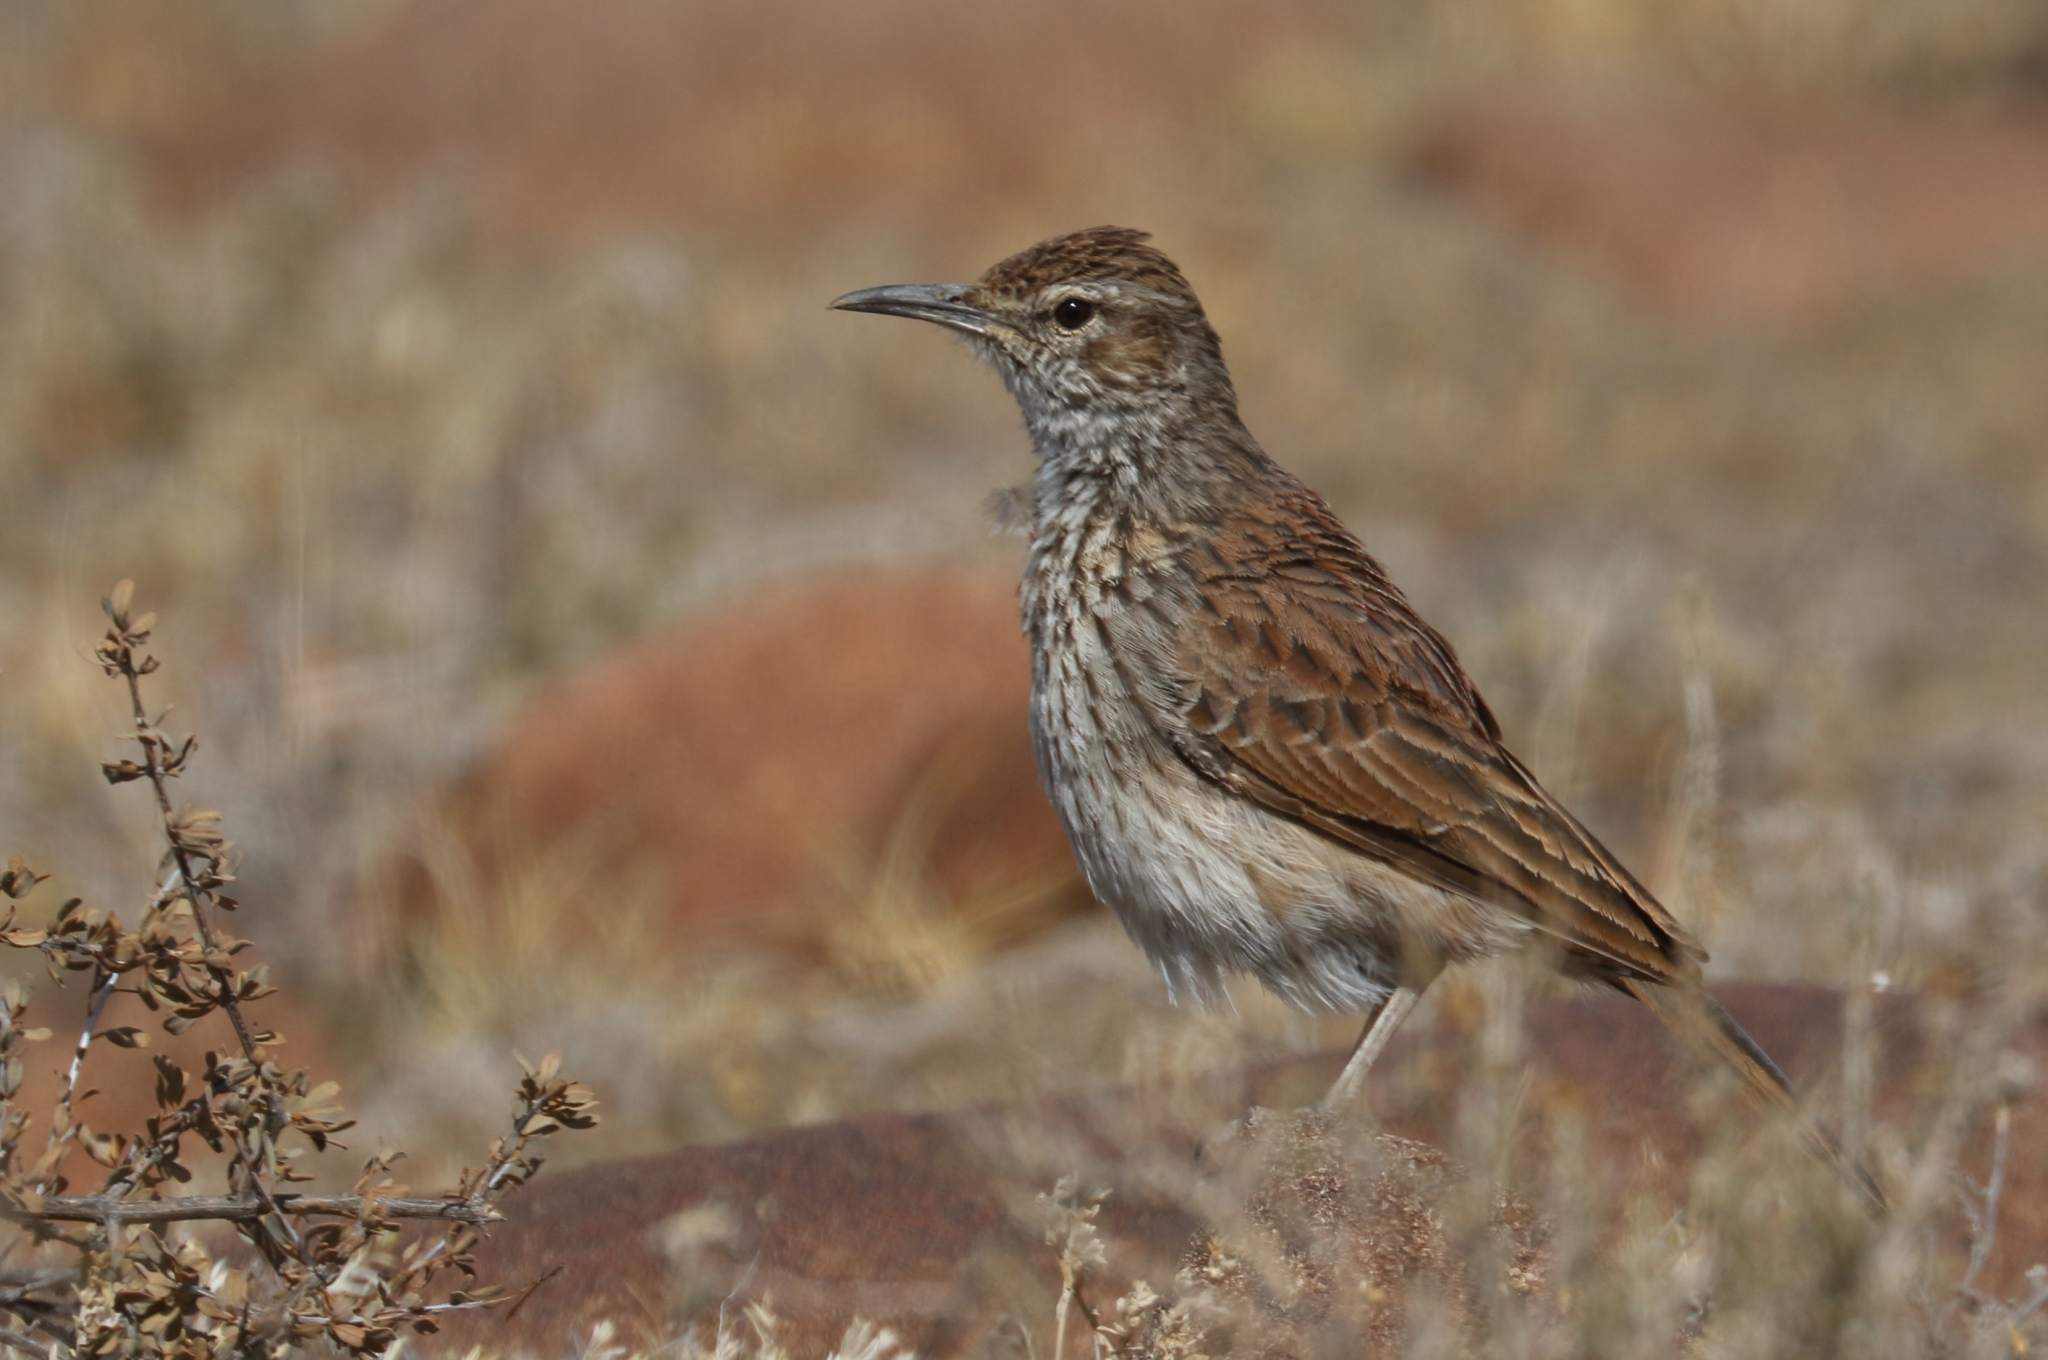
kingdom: Animalia
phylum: Chordata
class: Aves
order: Passeriformes
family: Alaudidae
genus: Certhilauda
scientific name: Certhilauda subcoronata
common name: Karoo long-billed lark
